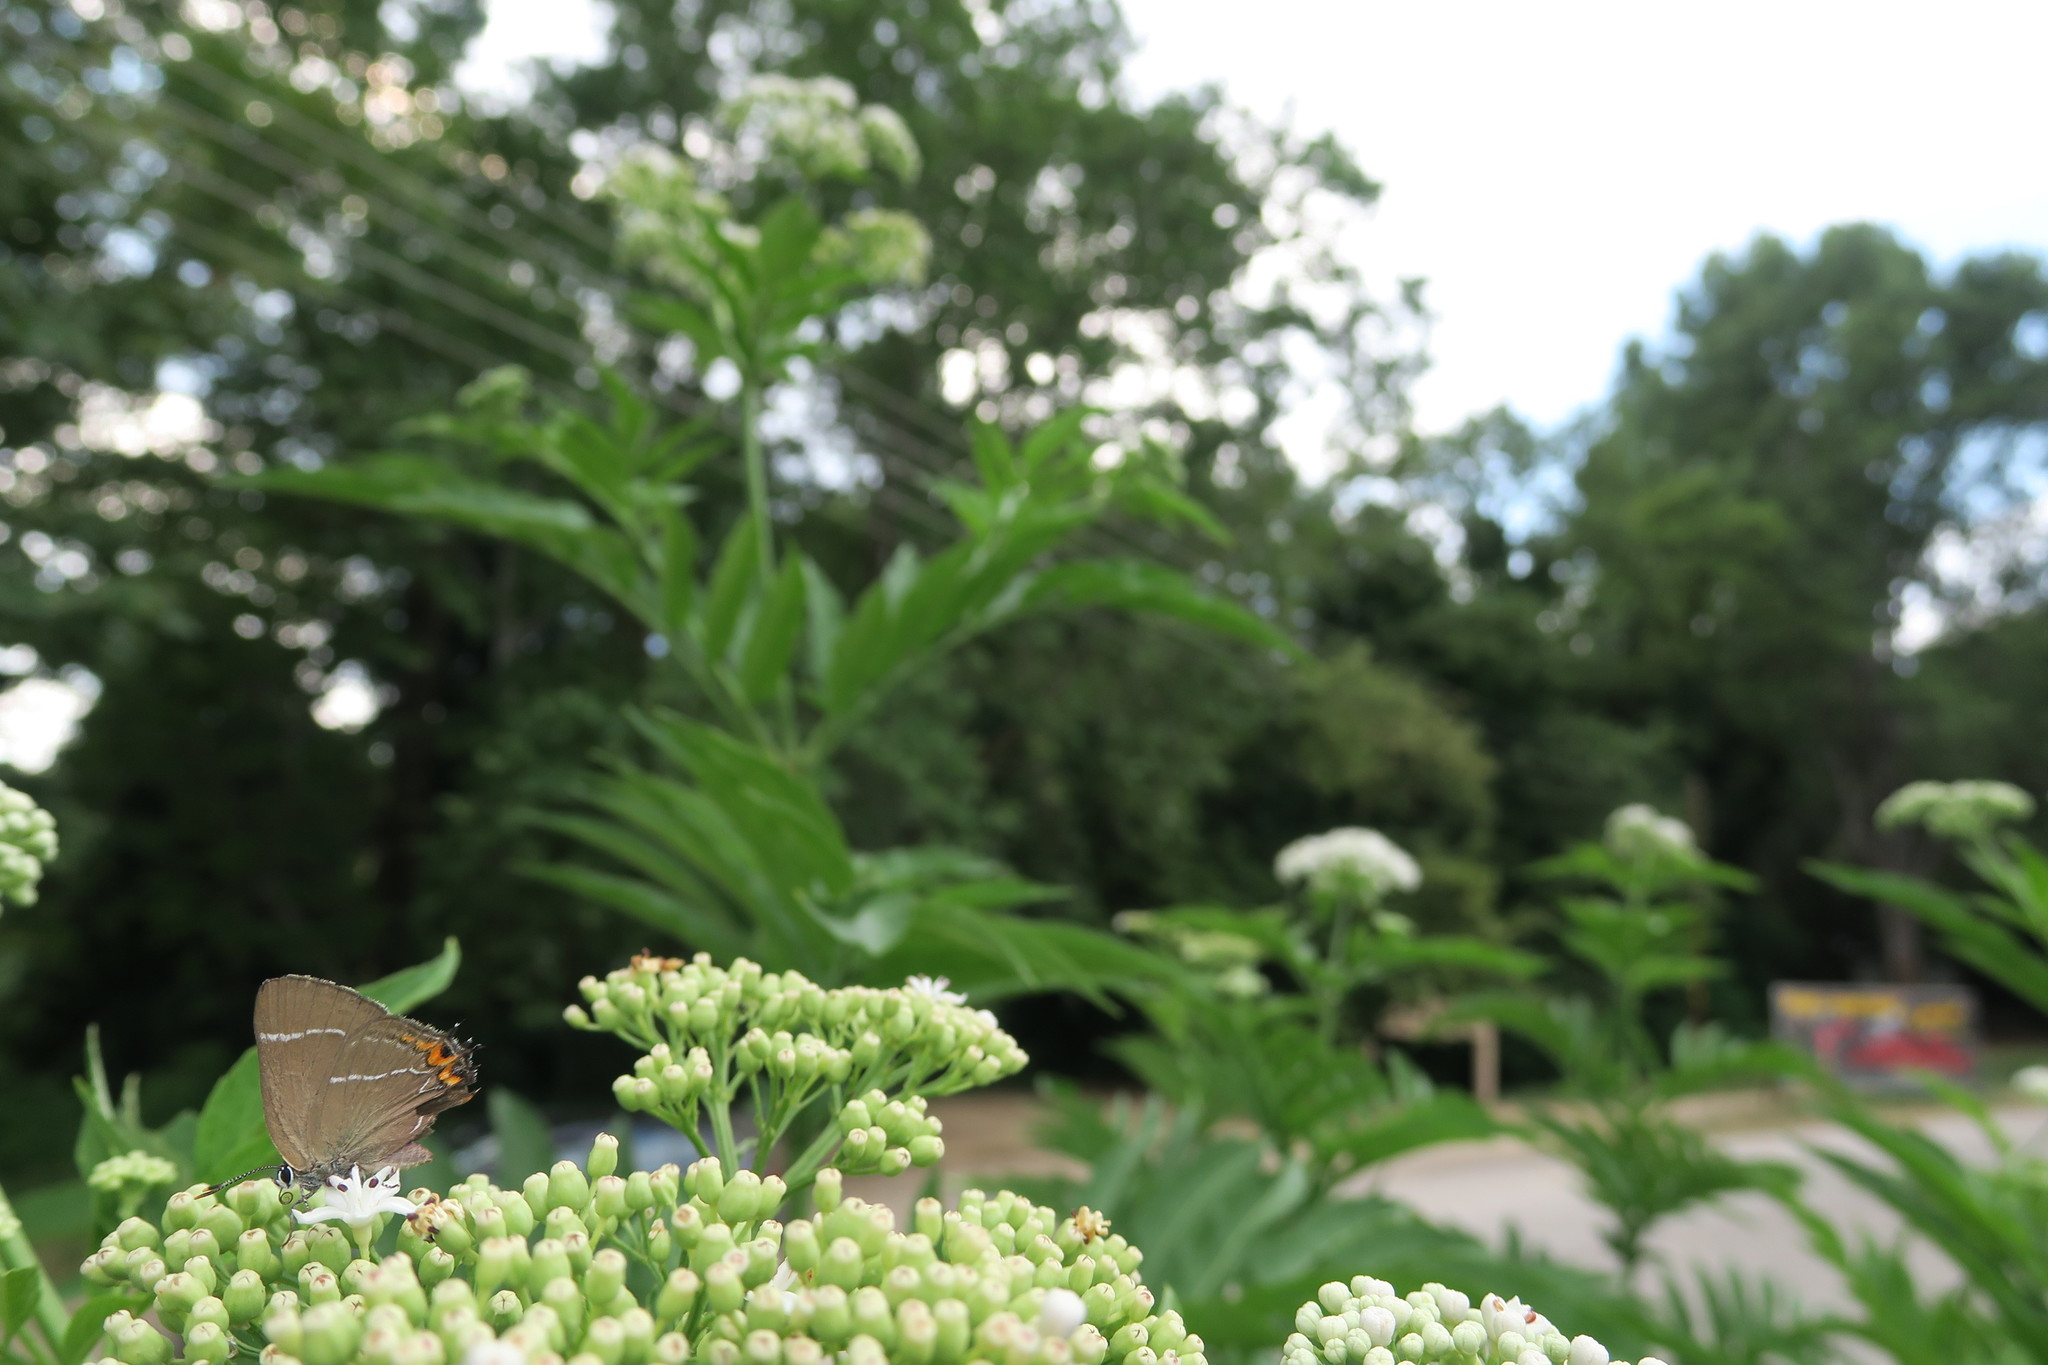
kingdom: Animalia
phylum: Arthropoda
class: Insecta
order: Lepidoptera
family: Lycaenidae
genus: Satyrium
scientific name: Satyrium w-album
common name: White-letter hairstreak
